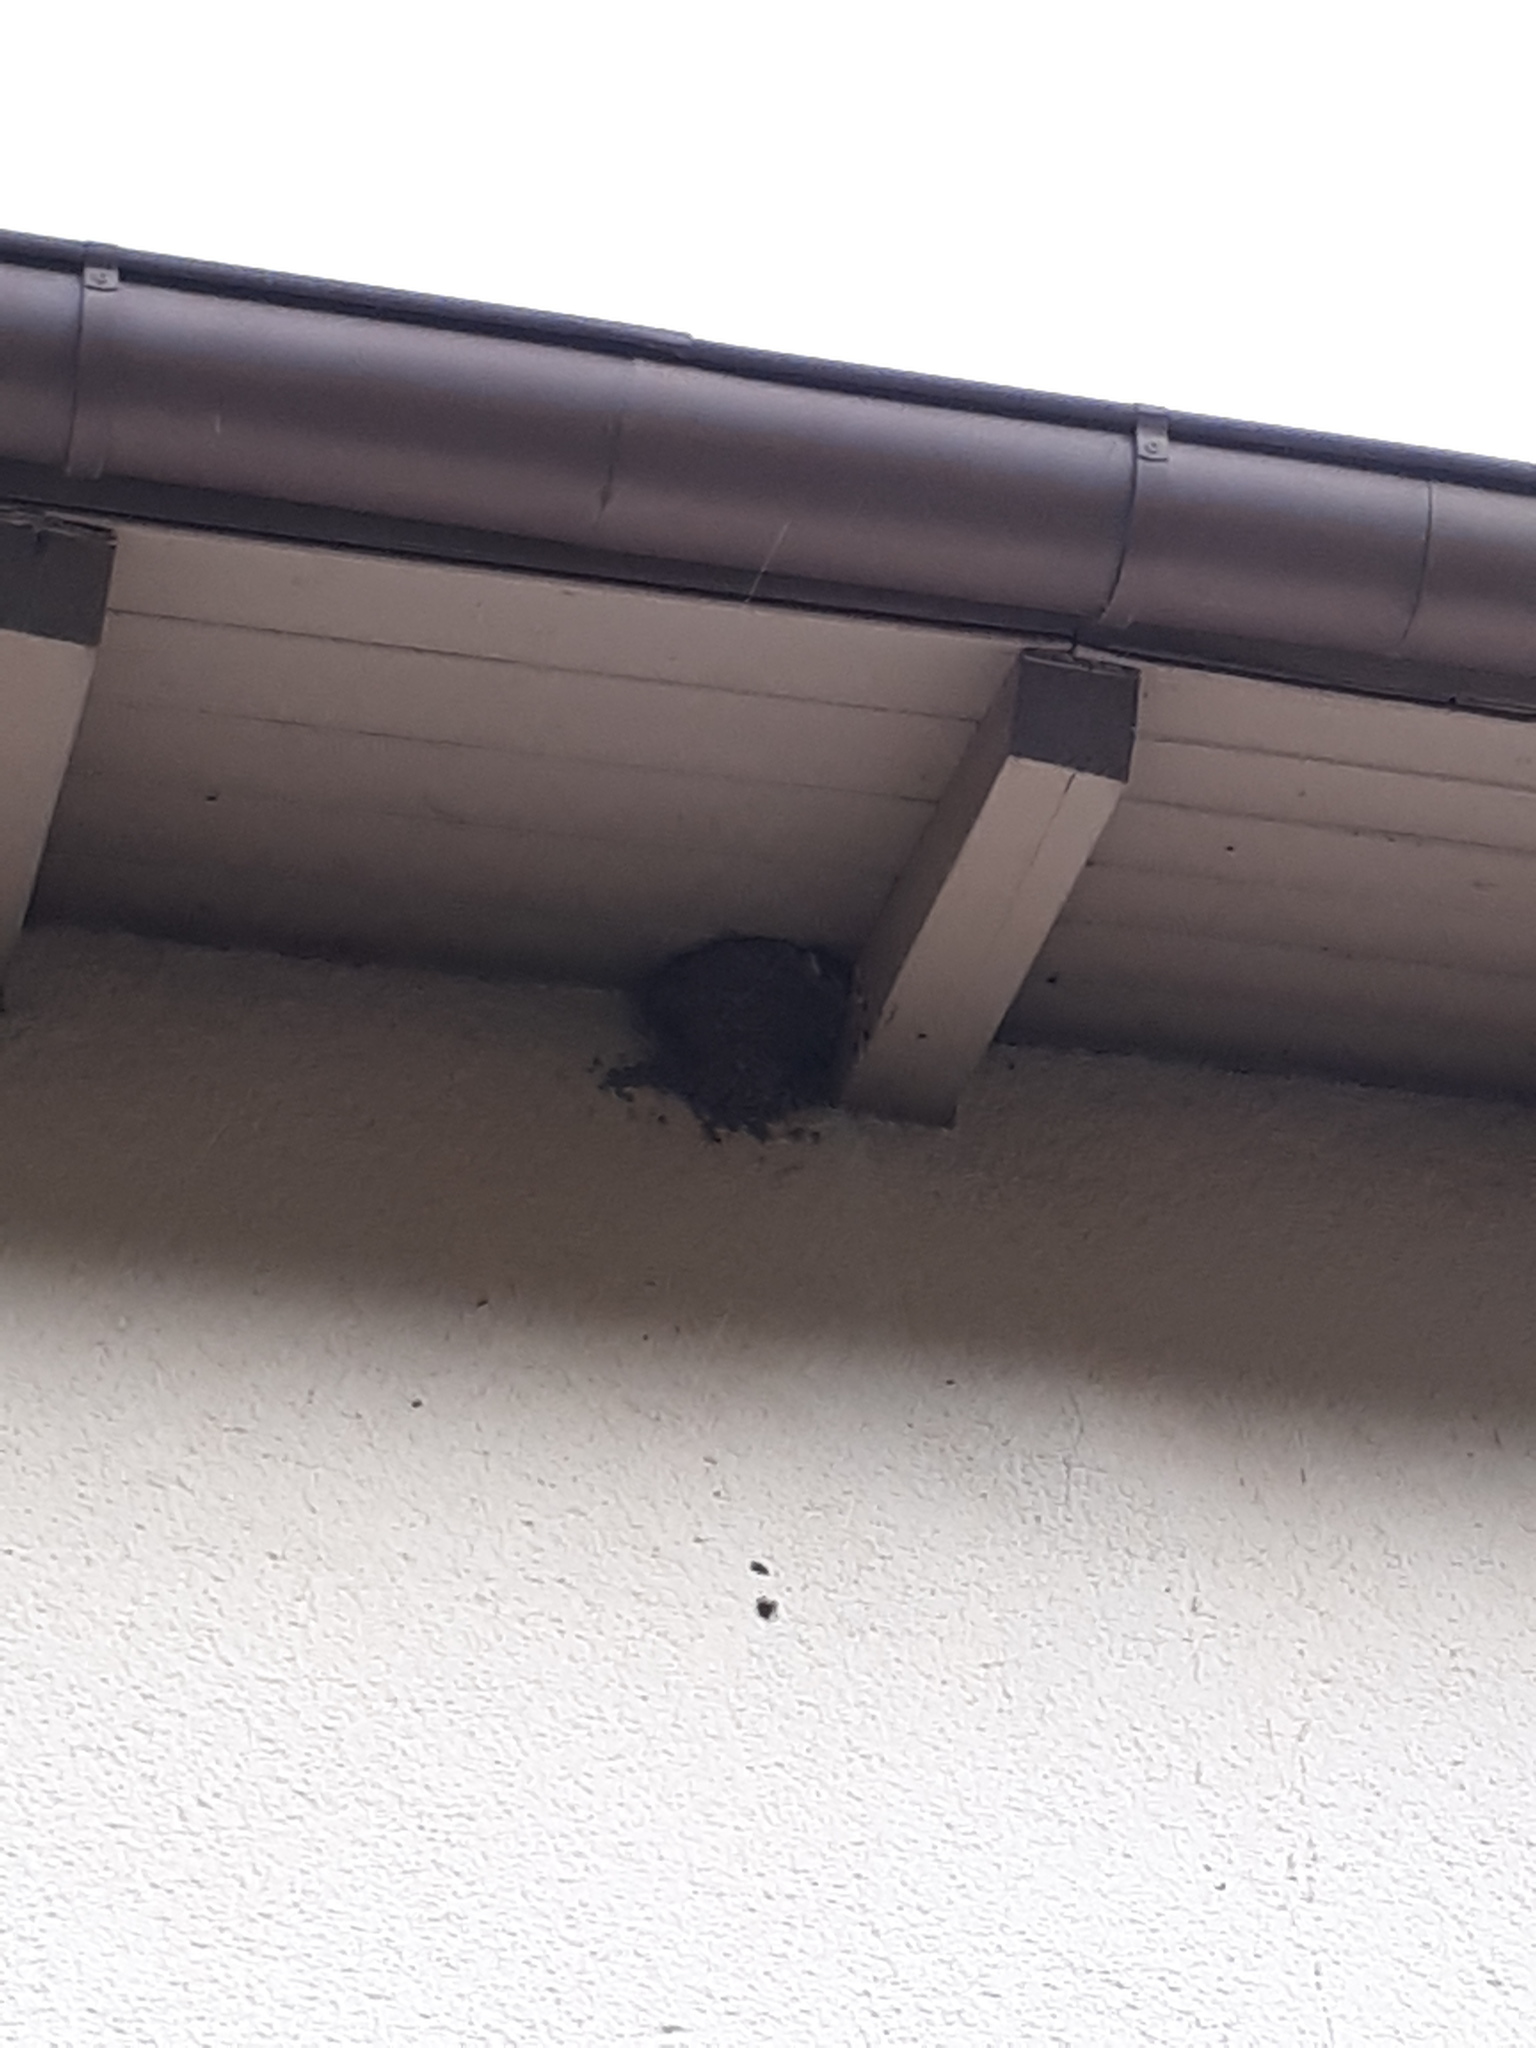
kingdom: Animalia
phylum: Chordata
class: Aves
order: Passeriformes
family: Hirundinidae
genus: Delichon
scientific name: Delichon urbicum
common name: Common house martin
